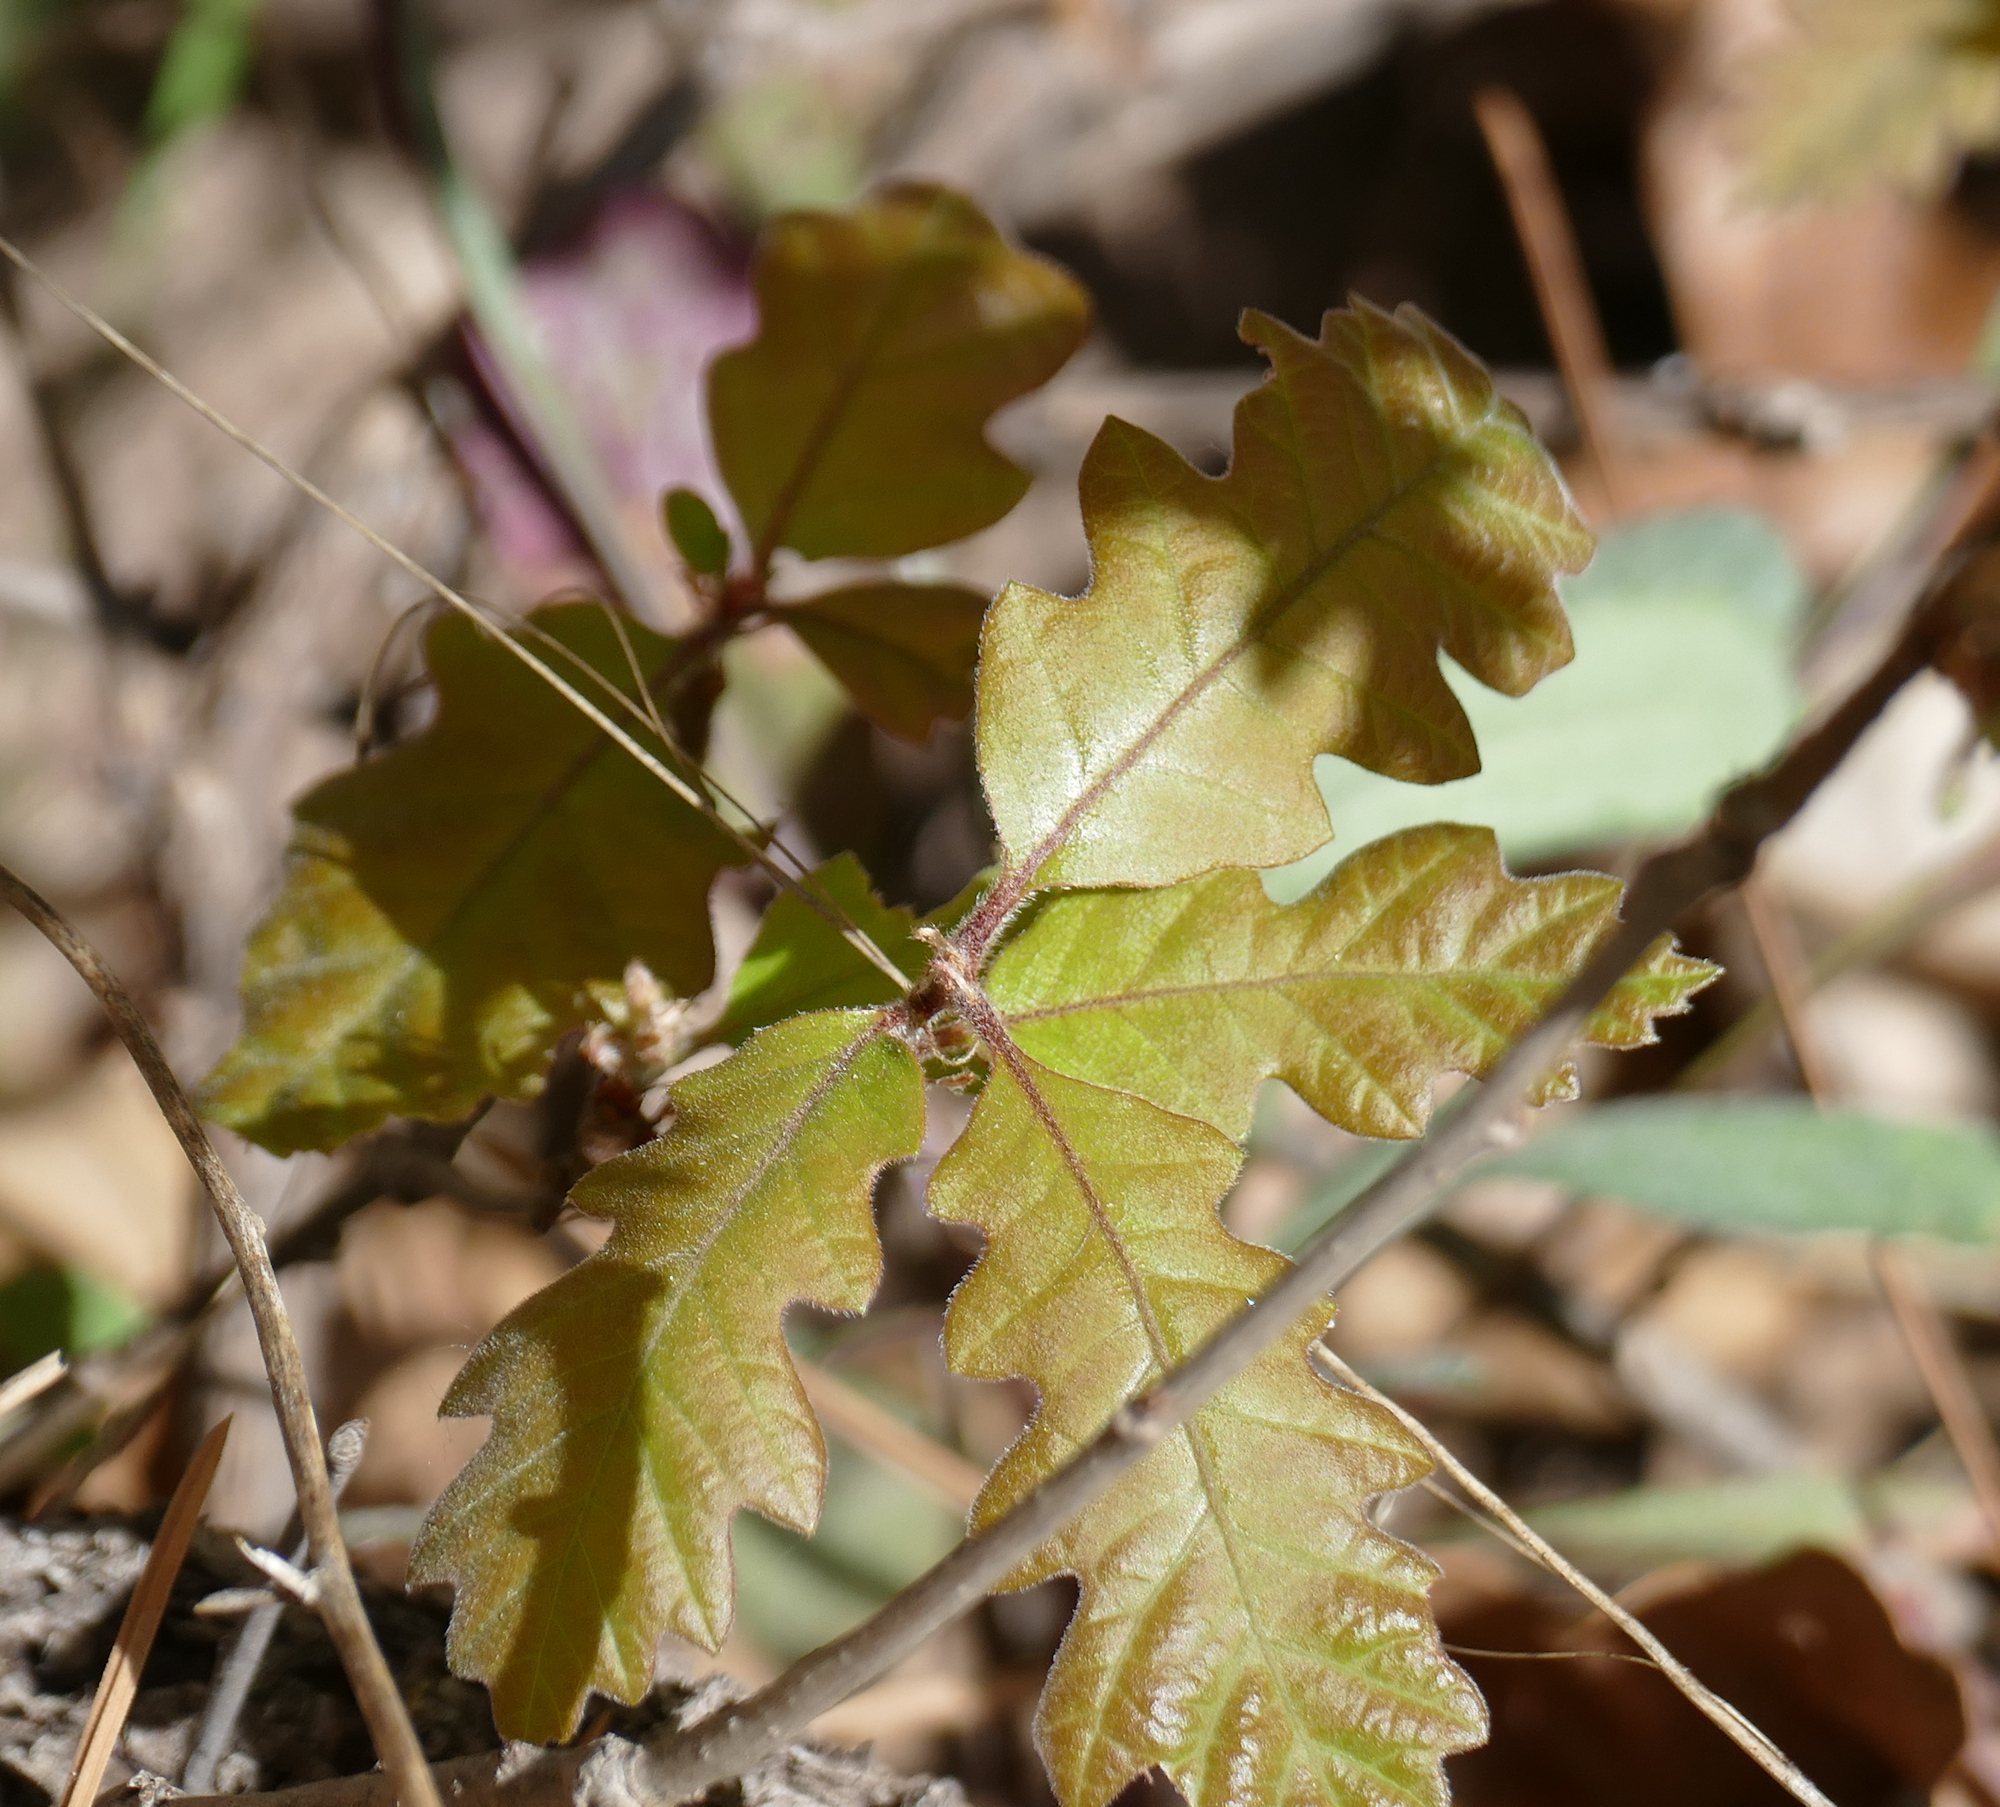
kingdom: Plantae
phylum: Tracheophyta
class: Magnoliopsida
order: Fagales
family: Fagaceae
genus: Quercus
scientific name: Quercus gambelii
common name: Gambel oak
